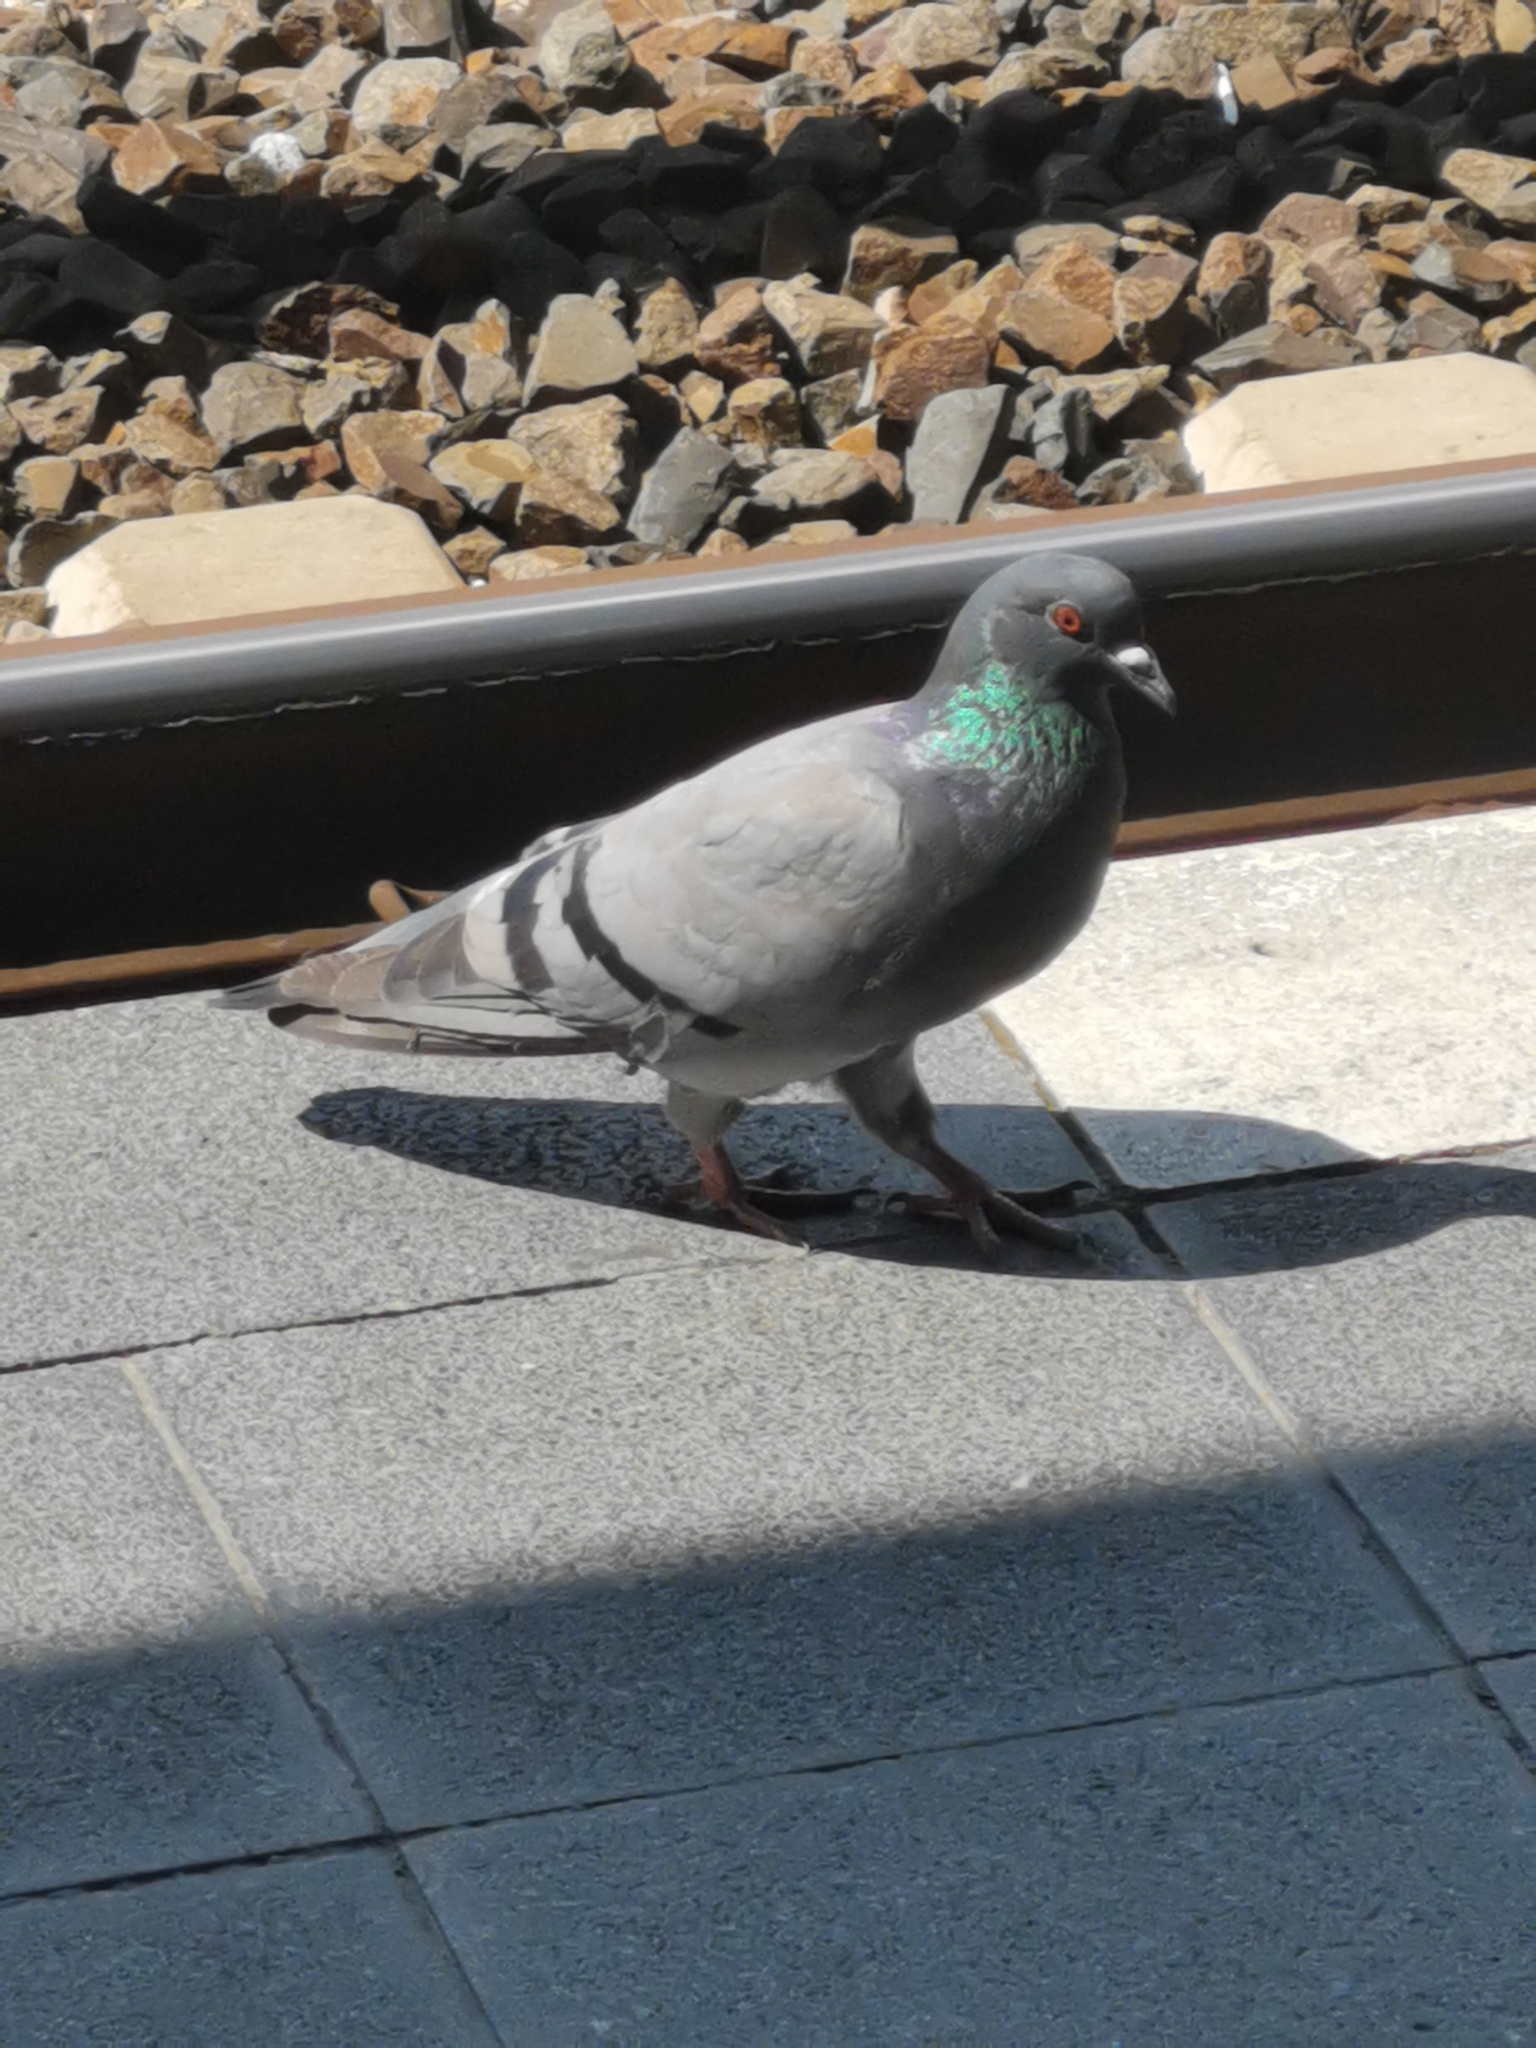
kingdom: Animalia
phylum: Chordata
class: Aves
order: Columbiformes
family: Columbidae
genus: Columba
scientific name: Columba livia
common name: Rock pigeon
